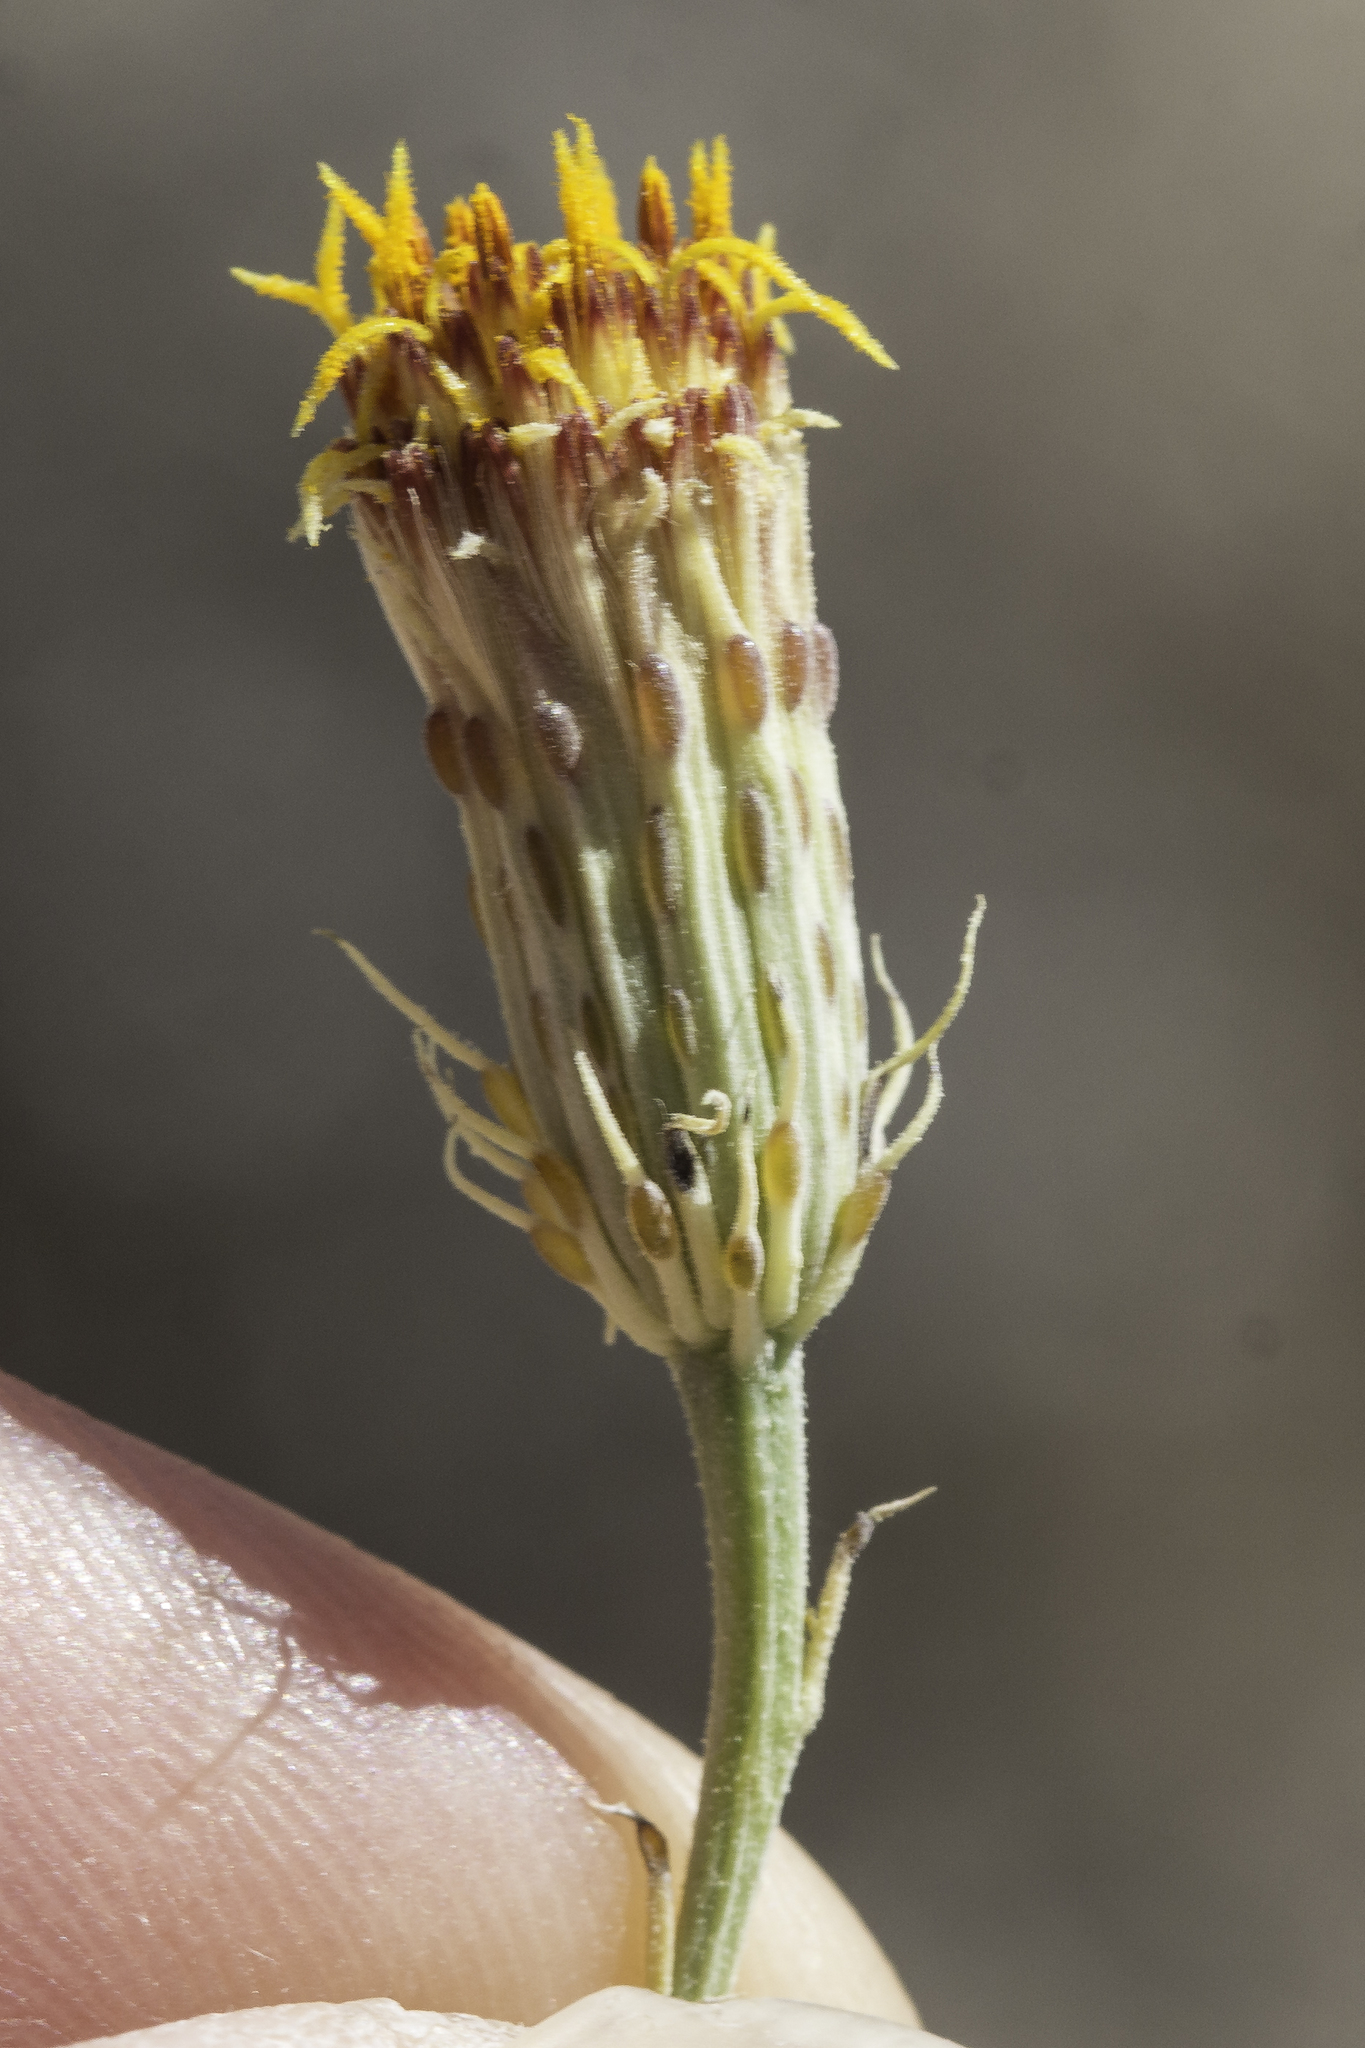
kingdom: Plantae
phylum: Tracheophyta
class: Magnoliopsida
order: Asterales
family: Asteraceae
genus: Adenophyllum
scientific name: Adenophyllum porophylloides
